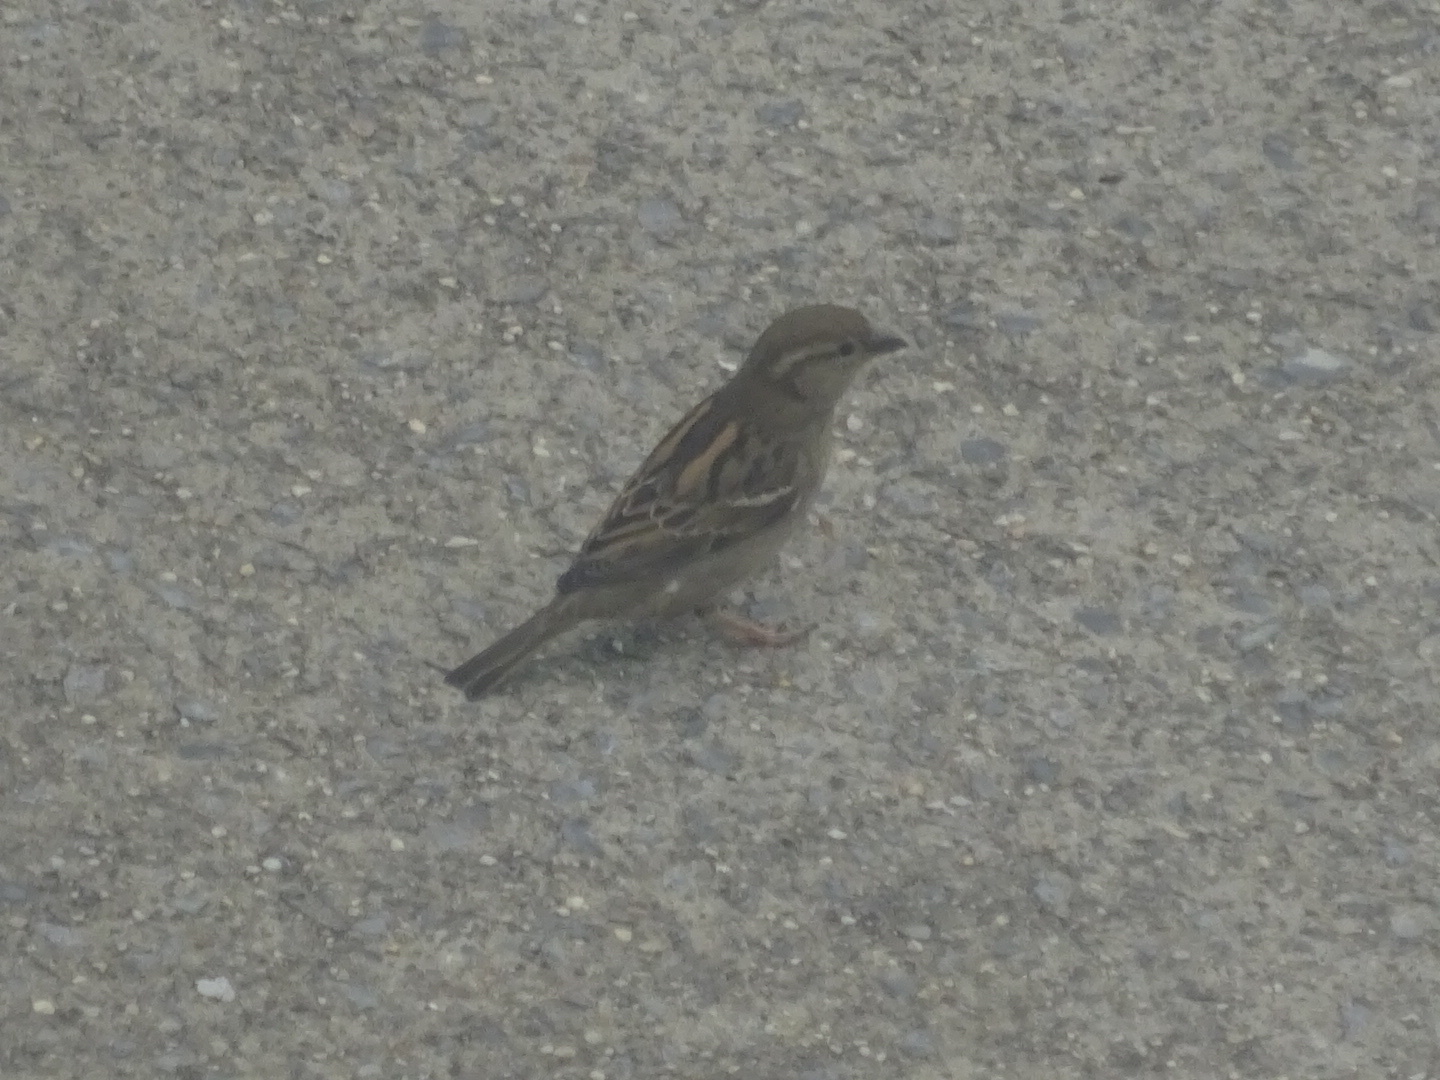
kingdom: Animalia
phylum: Chordata
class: Aves
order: Passeriformes
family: Passeridae
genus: Passer
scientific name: Passer domesticus
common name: House sparrow
